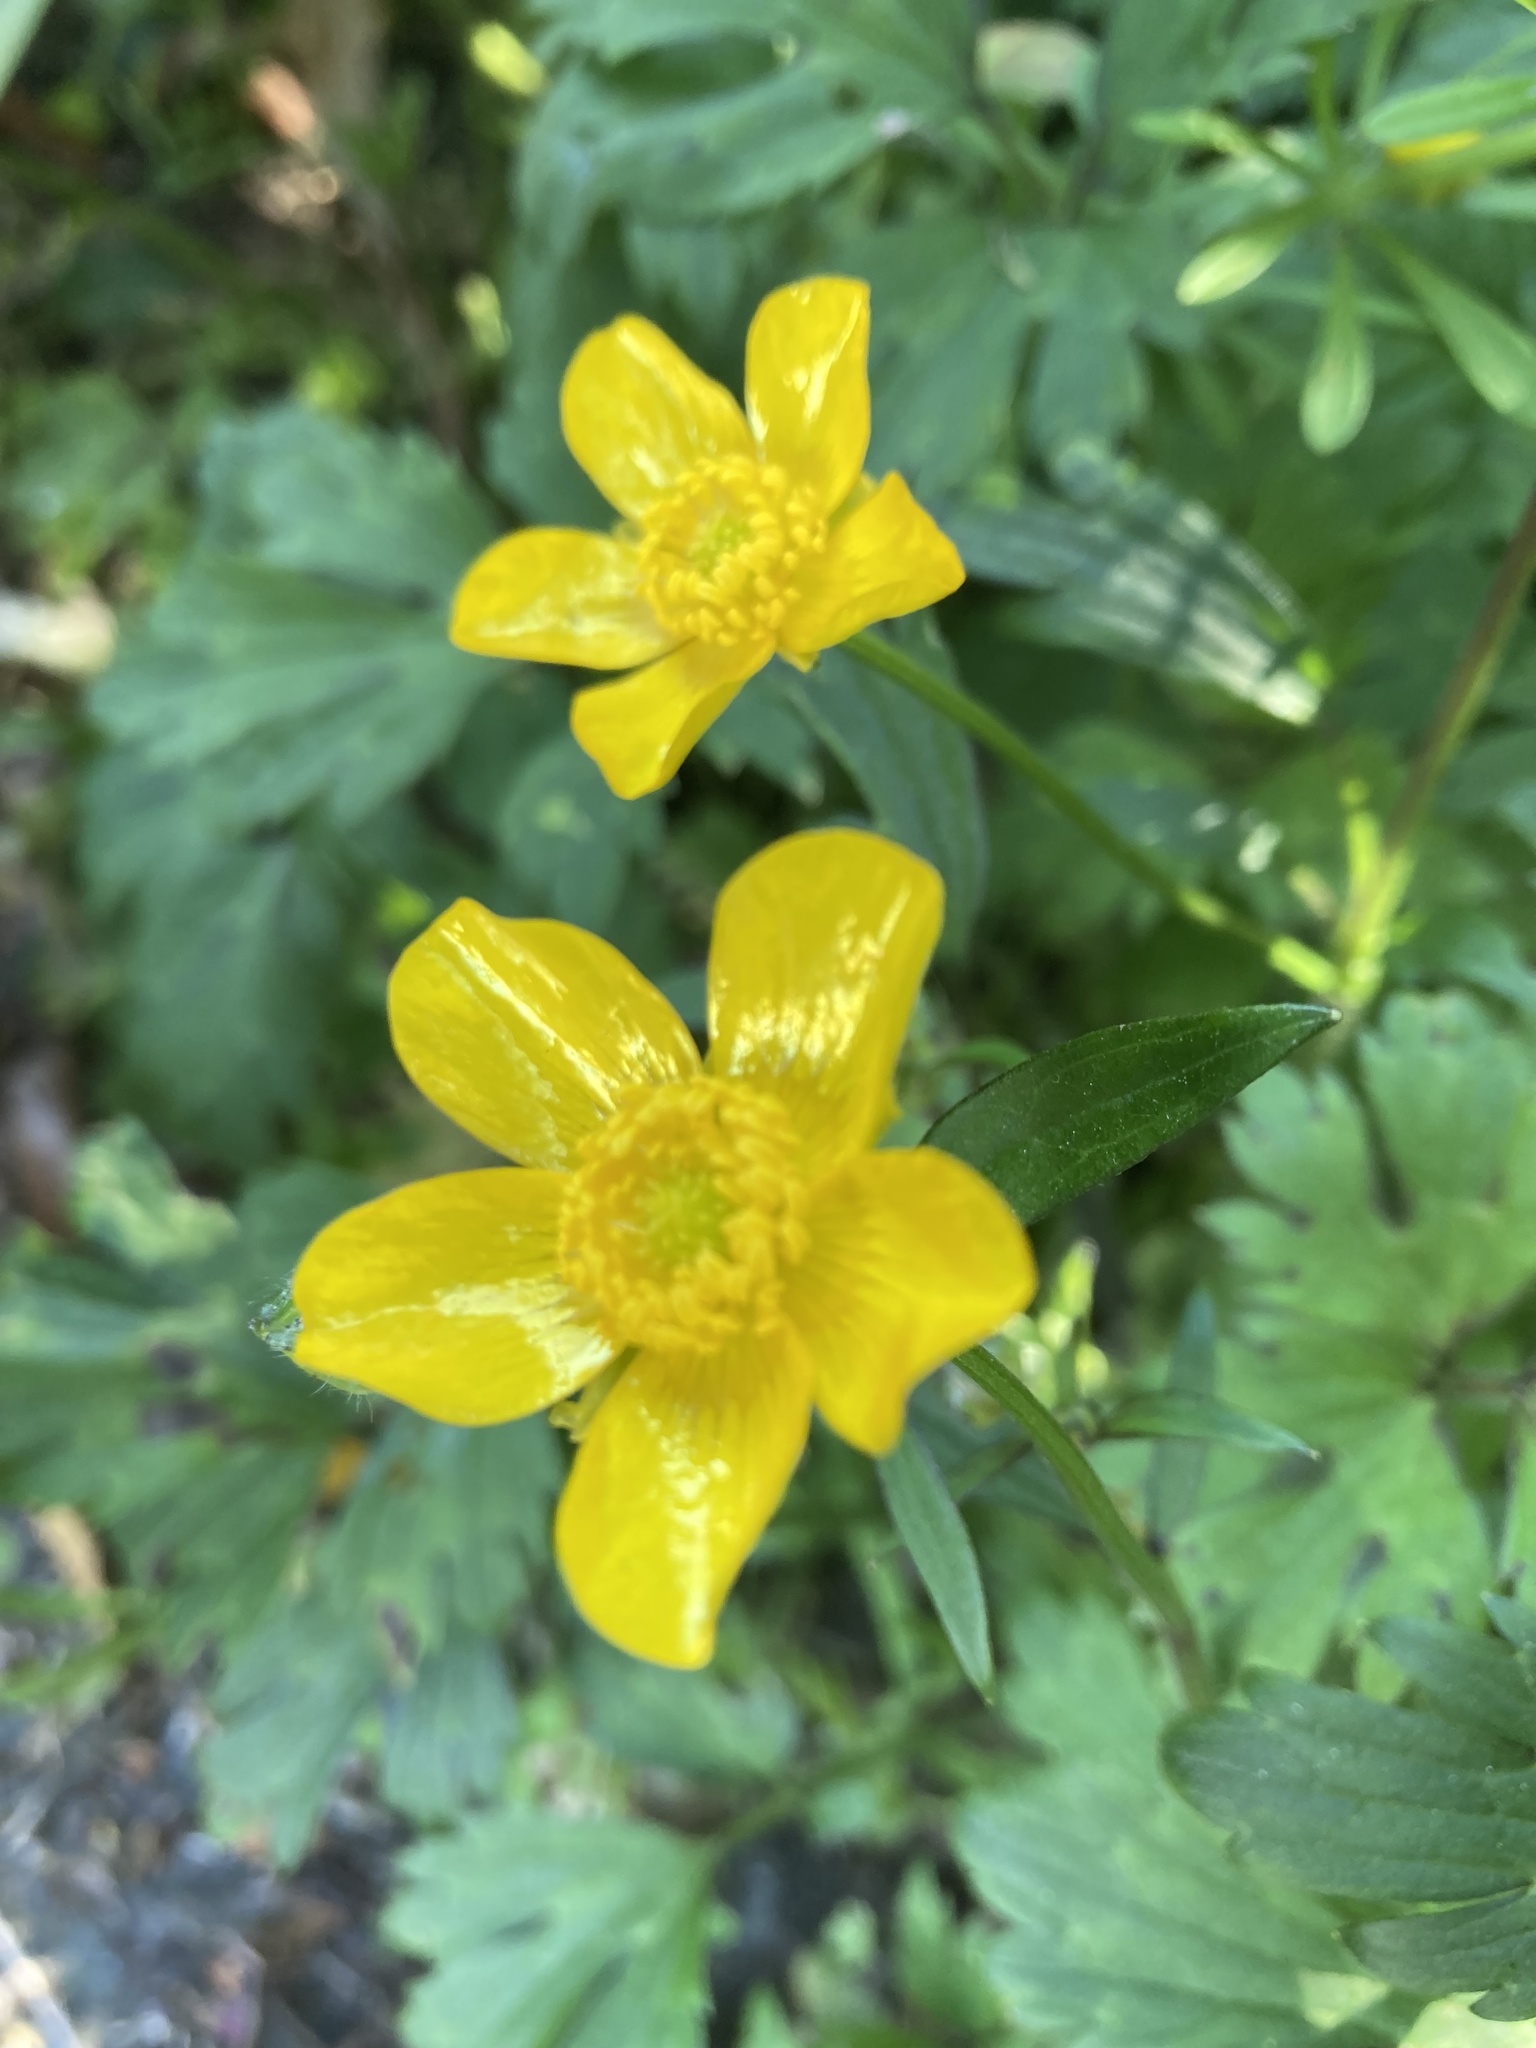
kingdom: Plantae
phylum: Tracheophyta
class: Magnoliopsida
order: Ranunculales
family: Ranunculaceae
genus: Ranunculus
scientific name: Ranunculus repens
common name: Creeping buttercup
